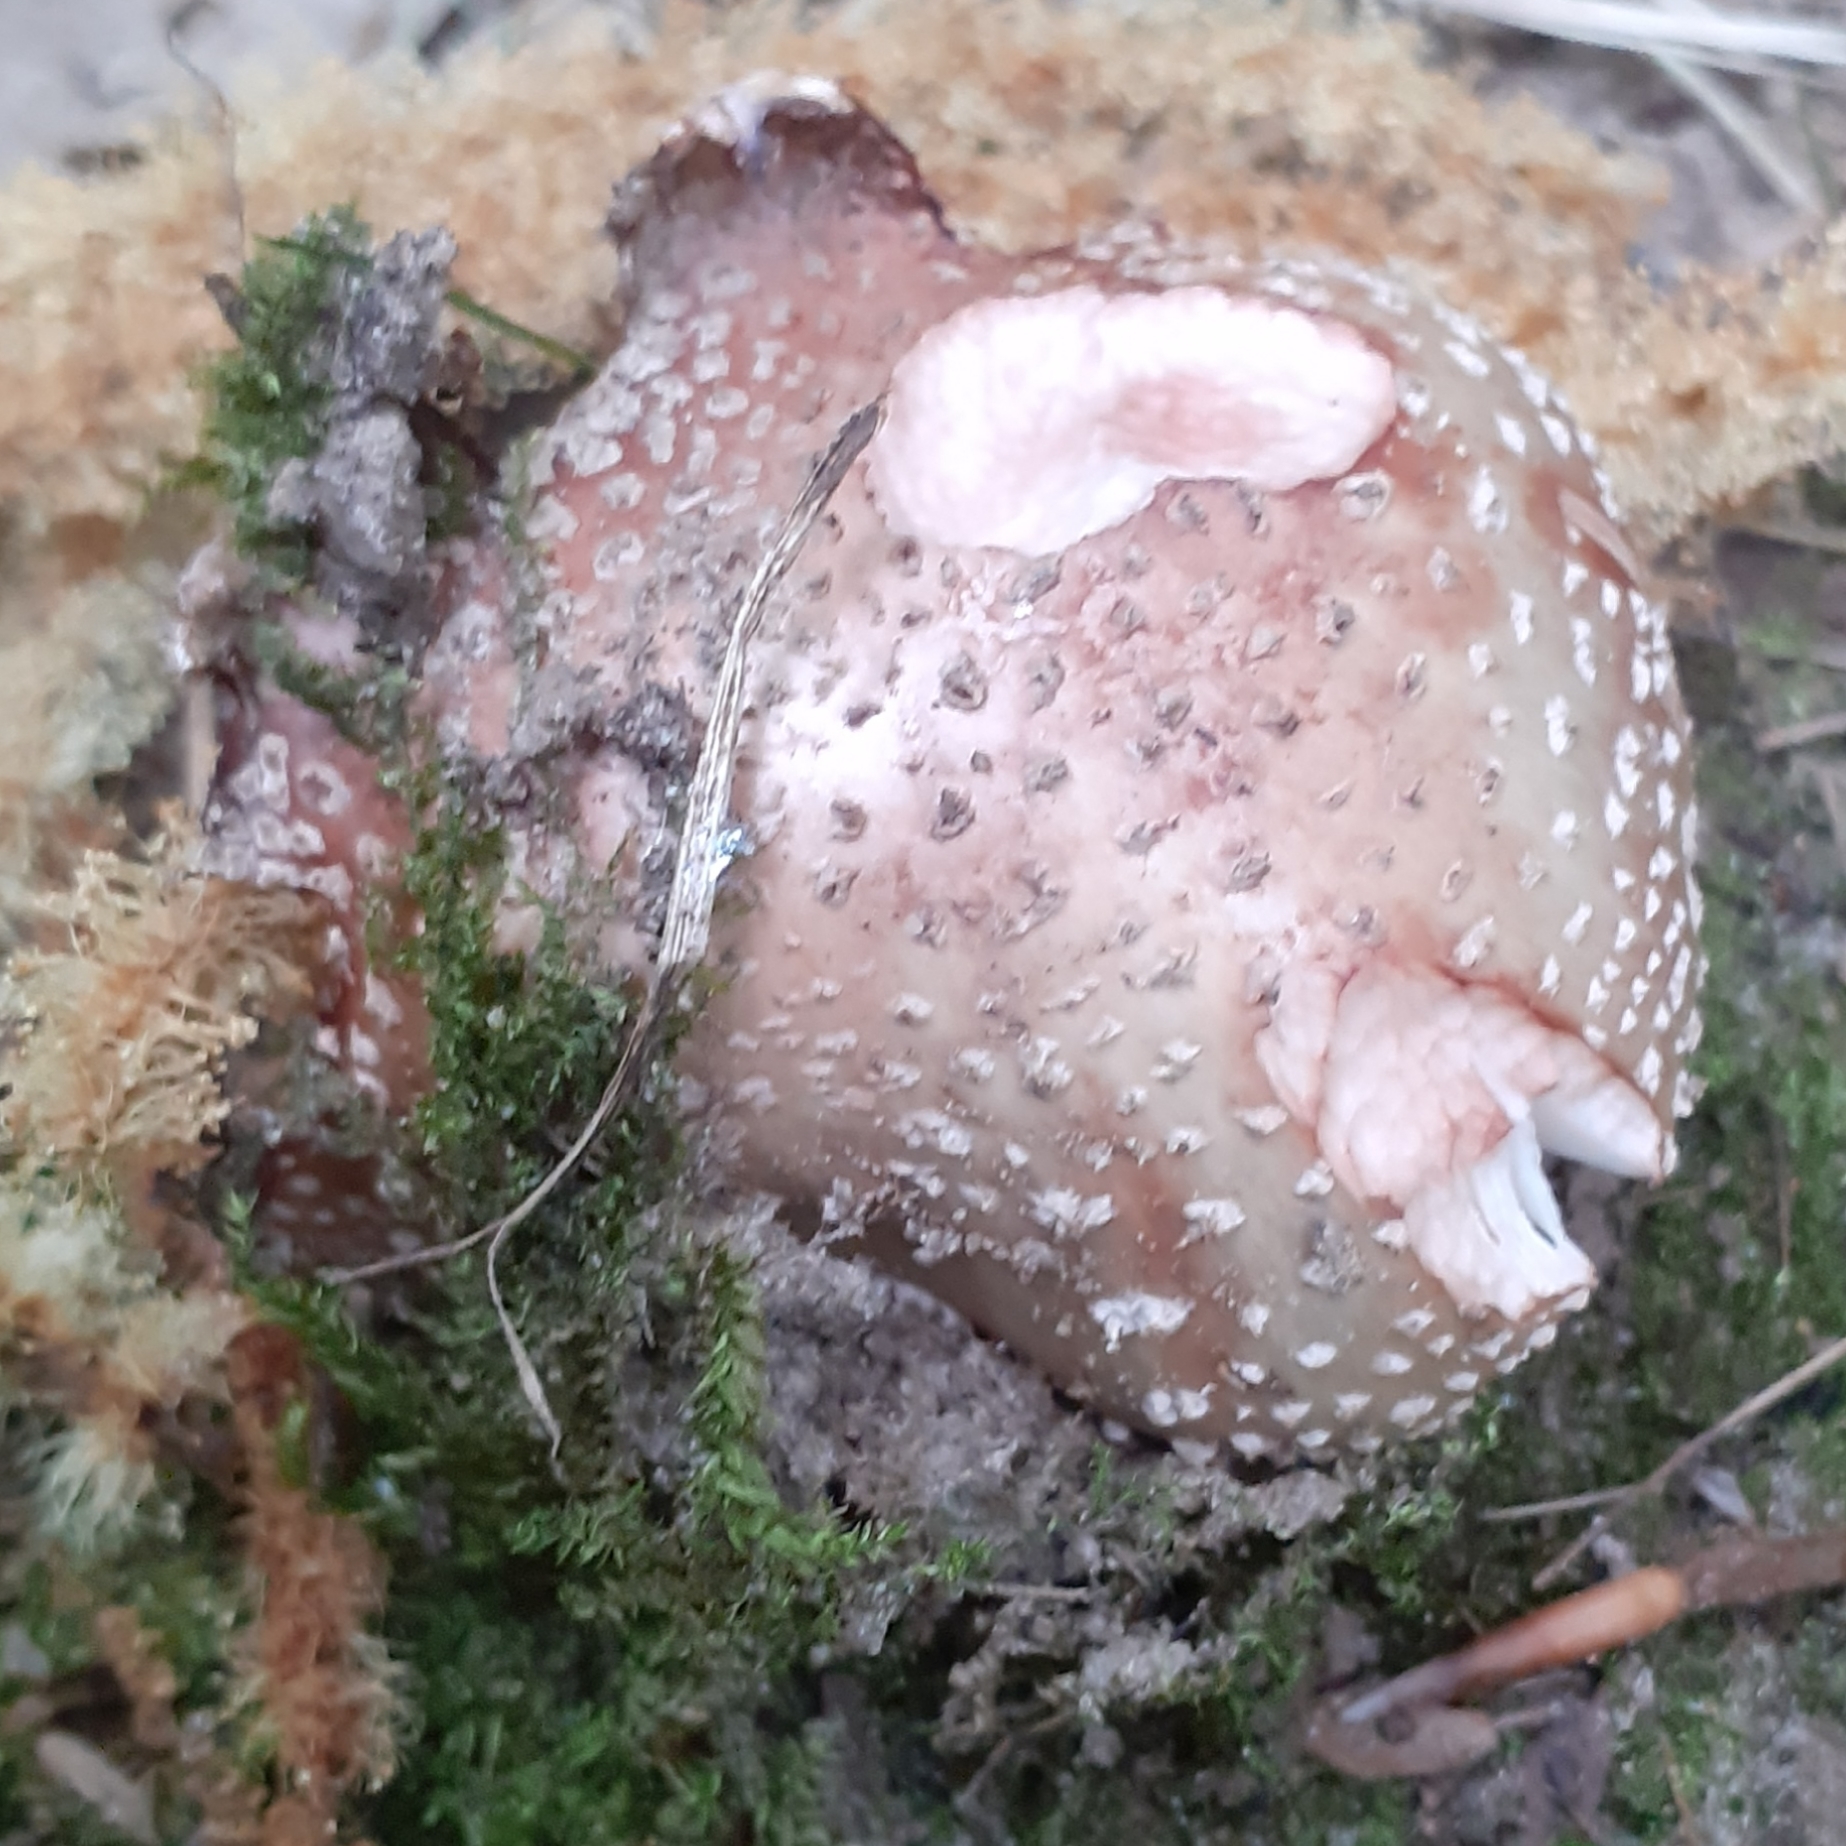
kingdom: Fungi
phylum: Basidiomycota
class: Agaricomycetes
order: Agaricales
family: Amanitaceae
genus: Amanita
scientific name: Amanita rubescens
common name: Blusher
